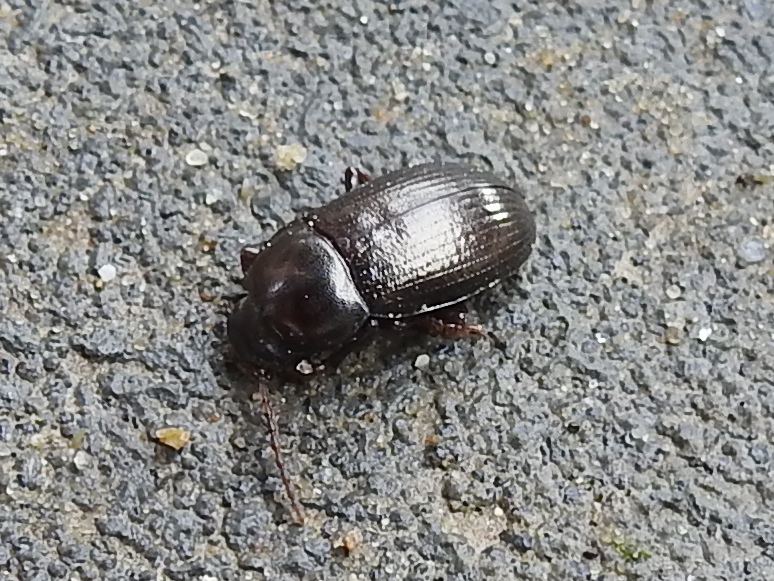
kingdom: Animalia
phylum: Arthropoda
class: Insecta
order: Coleoptera
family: Tenebrionidae
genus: Nalassus
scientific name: Nalassus laevioctostriatus
